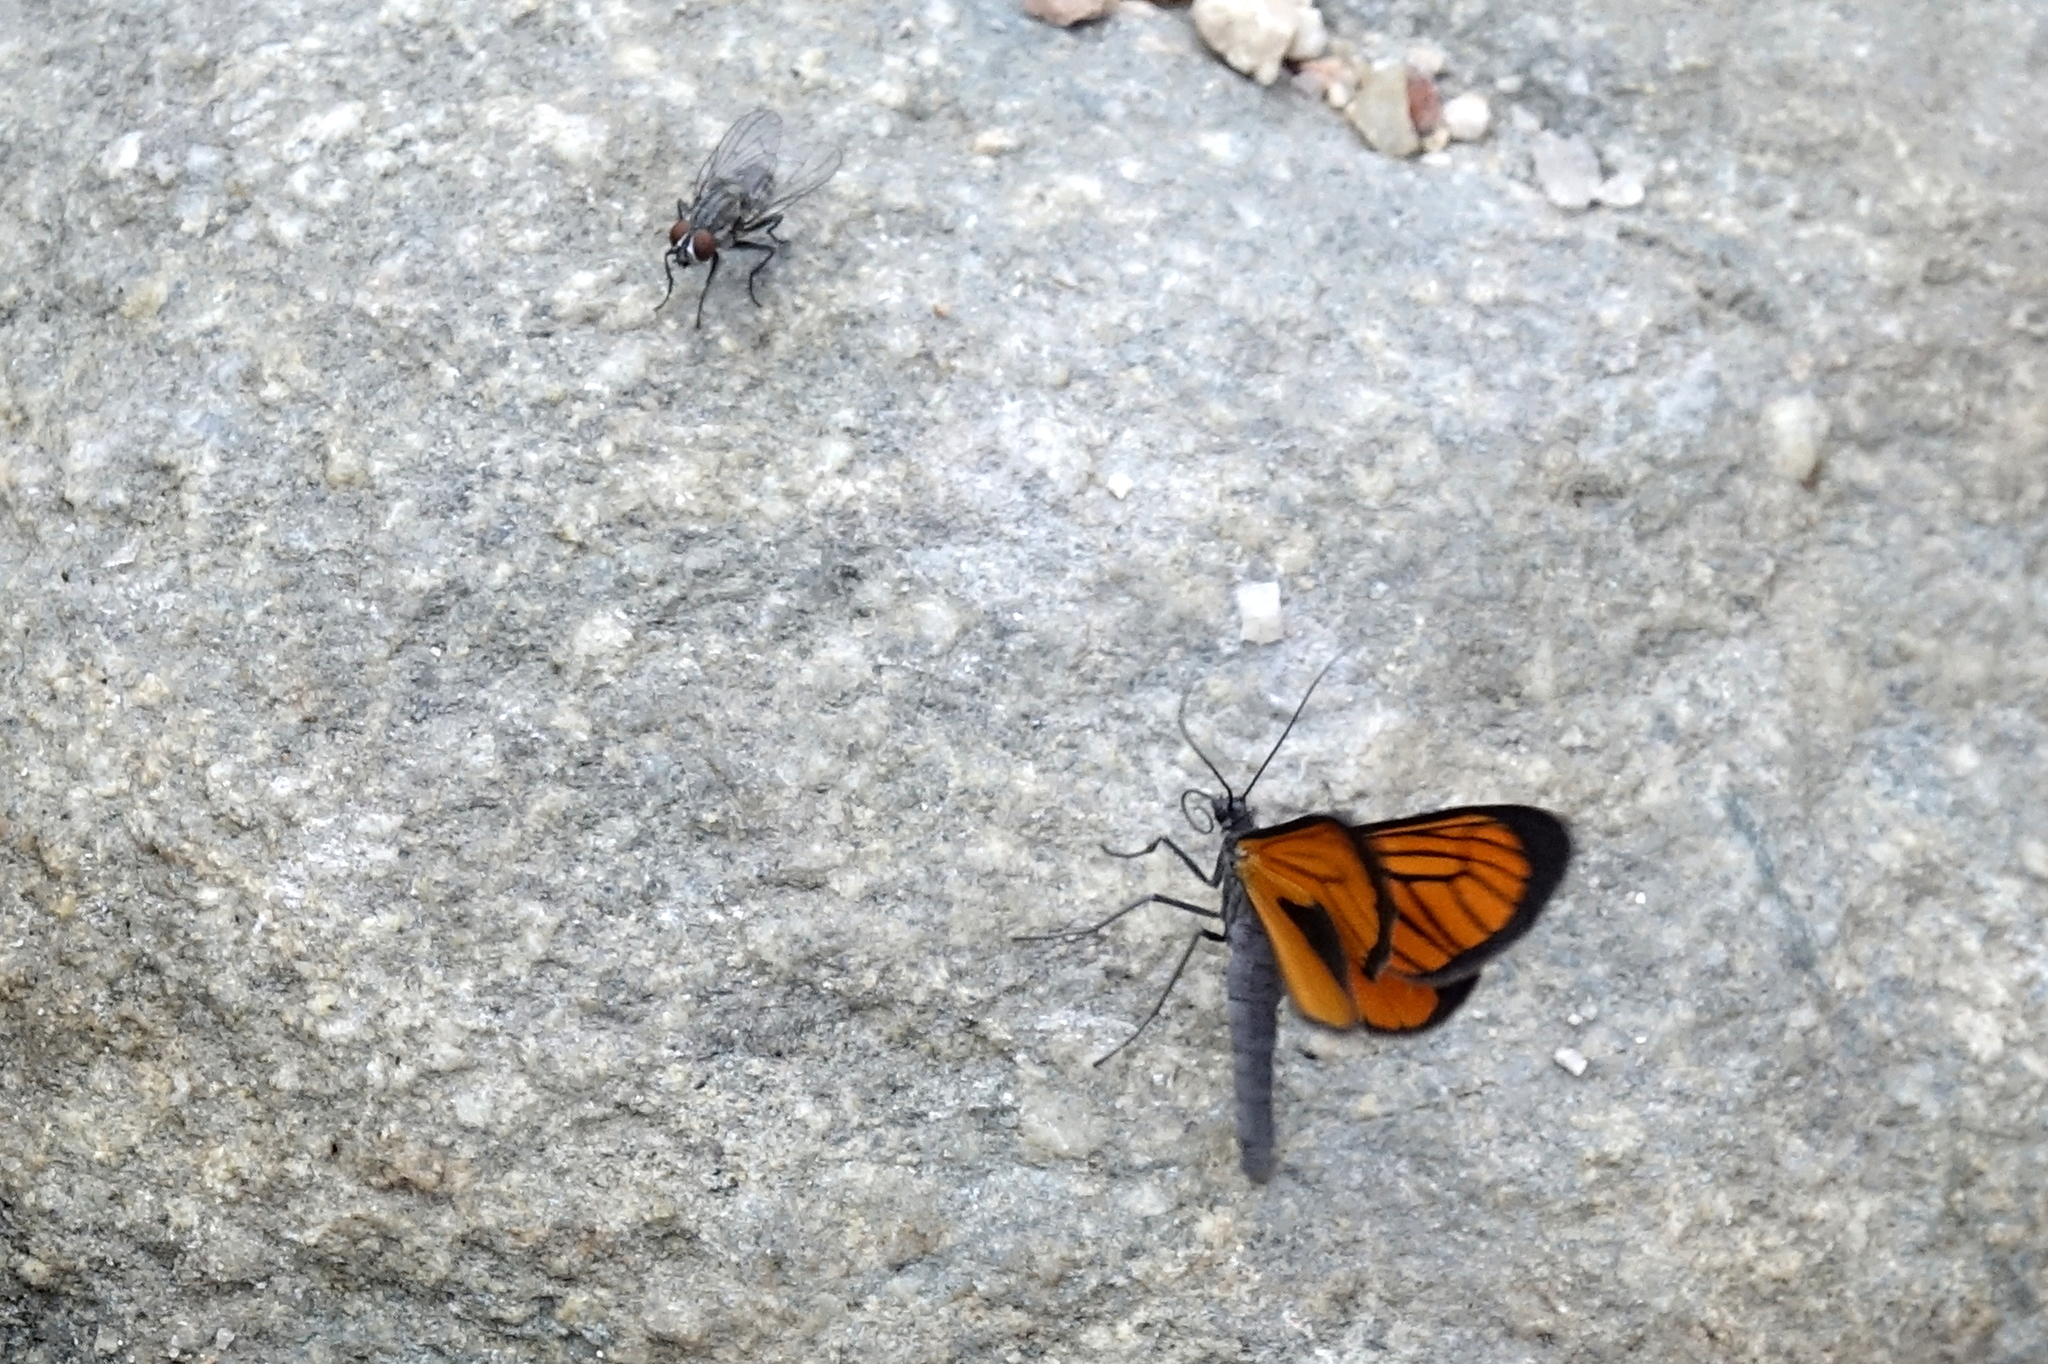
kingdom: Animalia
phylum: Arthropoda
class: Insecta
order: Lepidoptera
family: Geometridae
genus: Eudule
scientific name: Eudule limbata
